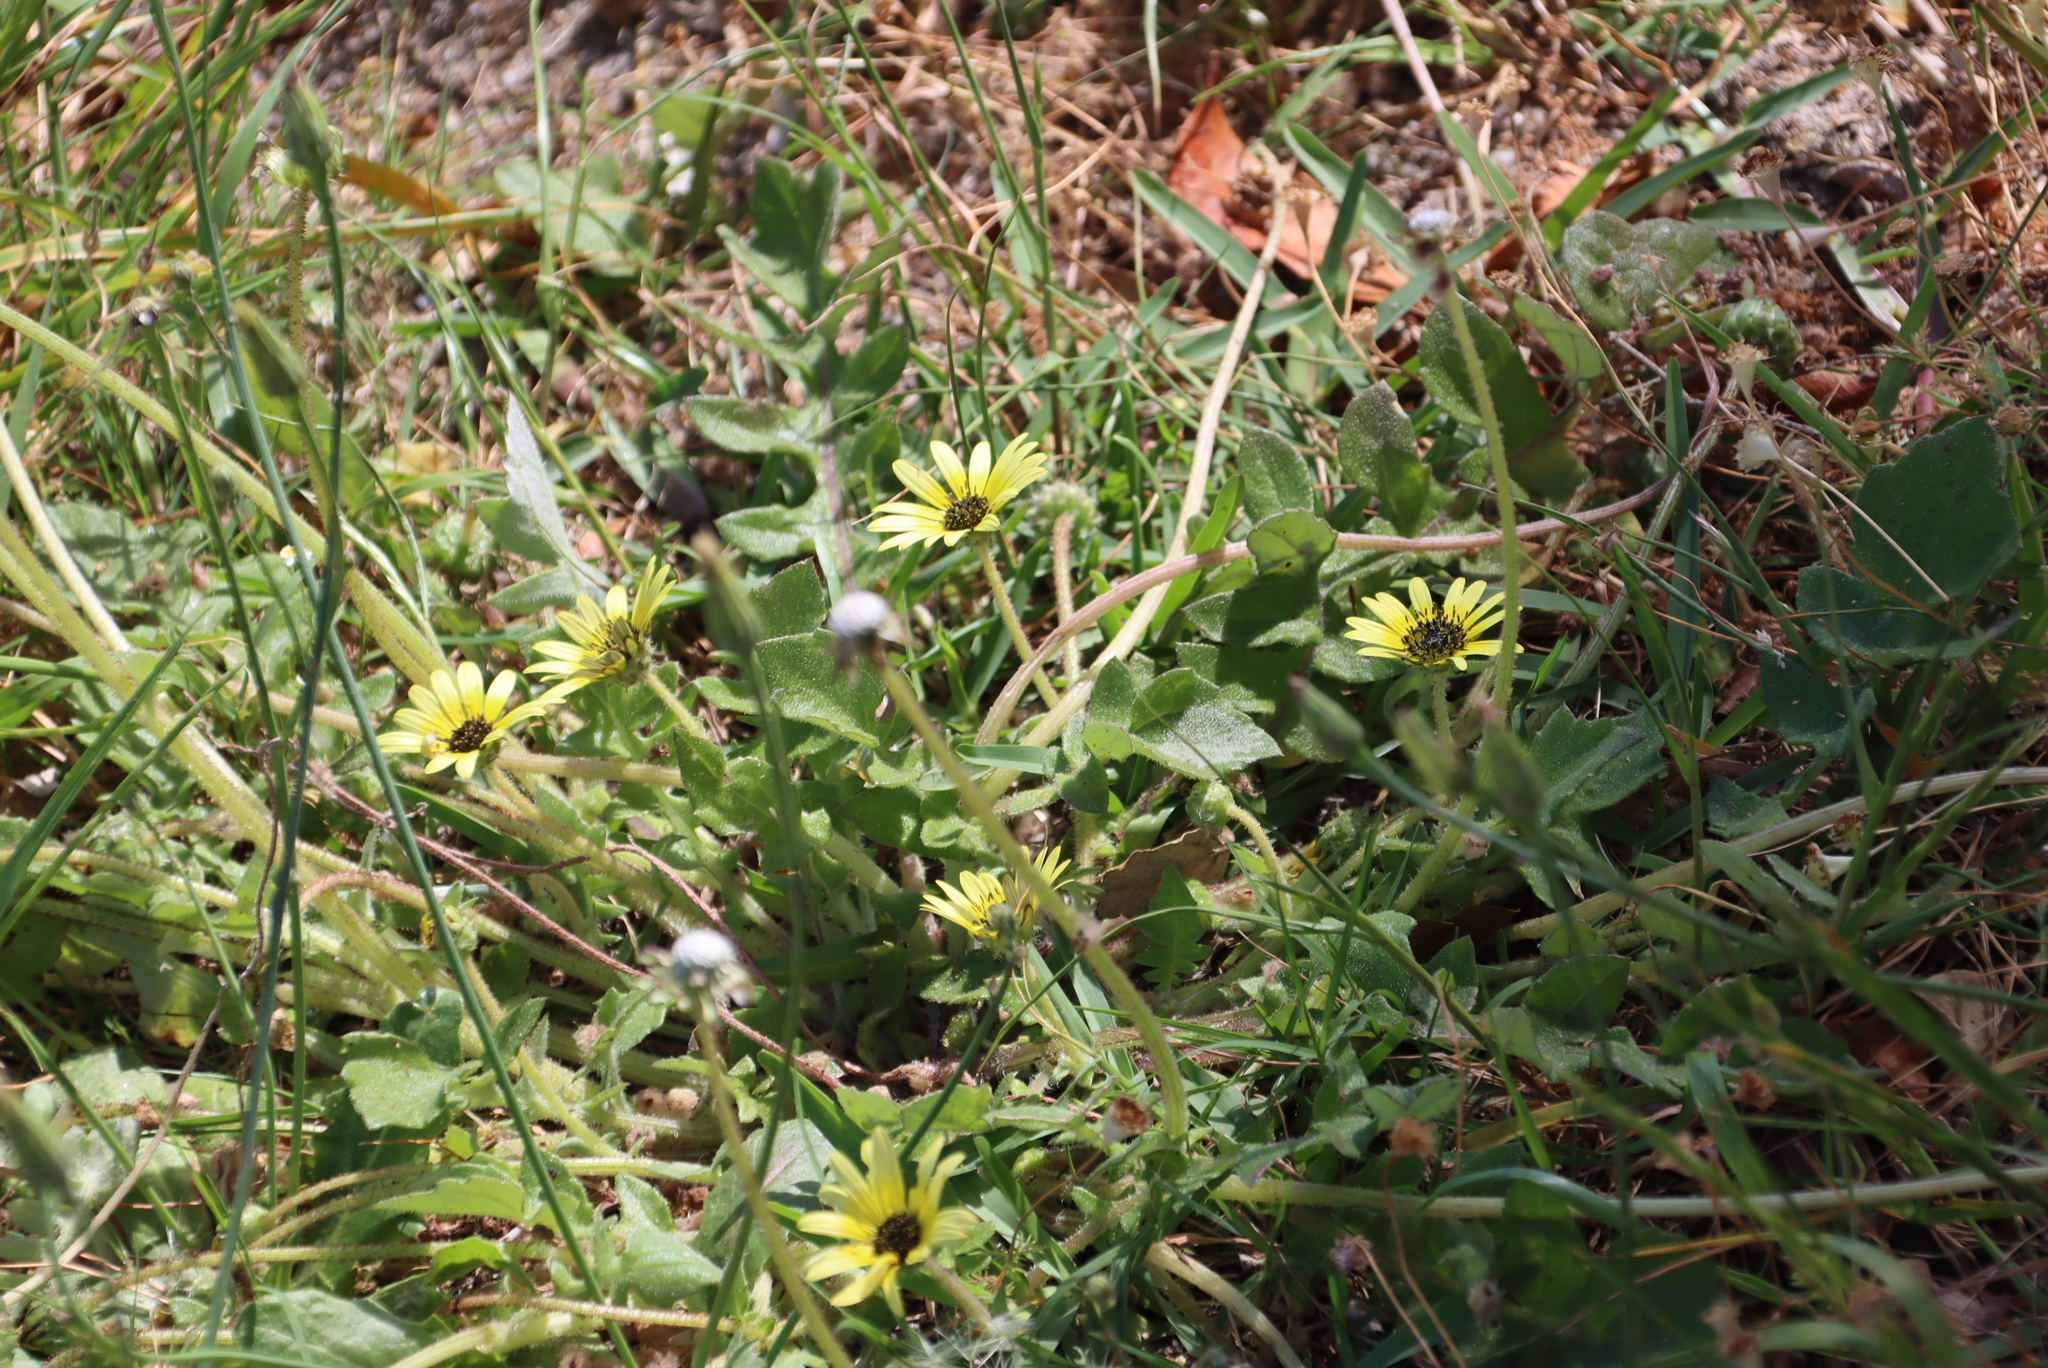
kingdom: Plantae
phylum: Tracheophyta
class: Magnoliopsida
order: Asterales
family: Asteraceae
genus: Arctotheca
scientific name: Arctotheca calendula
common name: Capeweed
